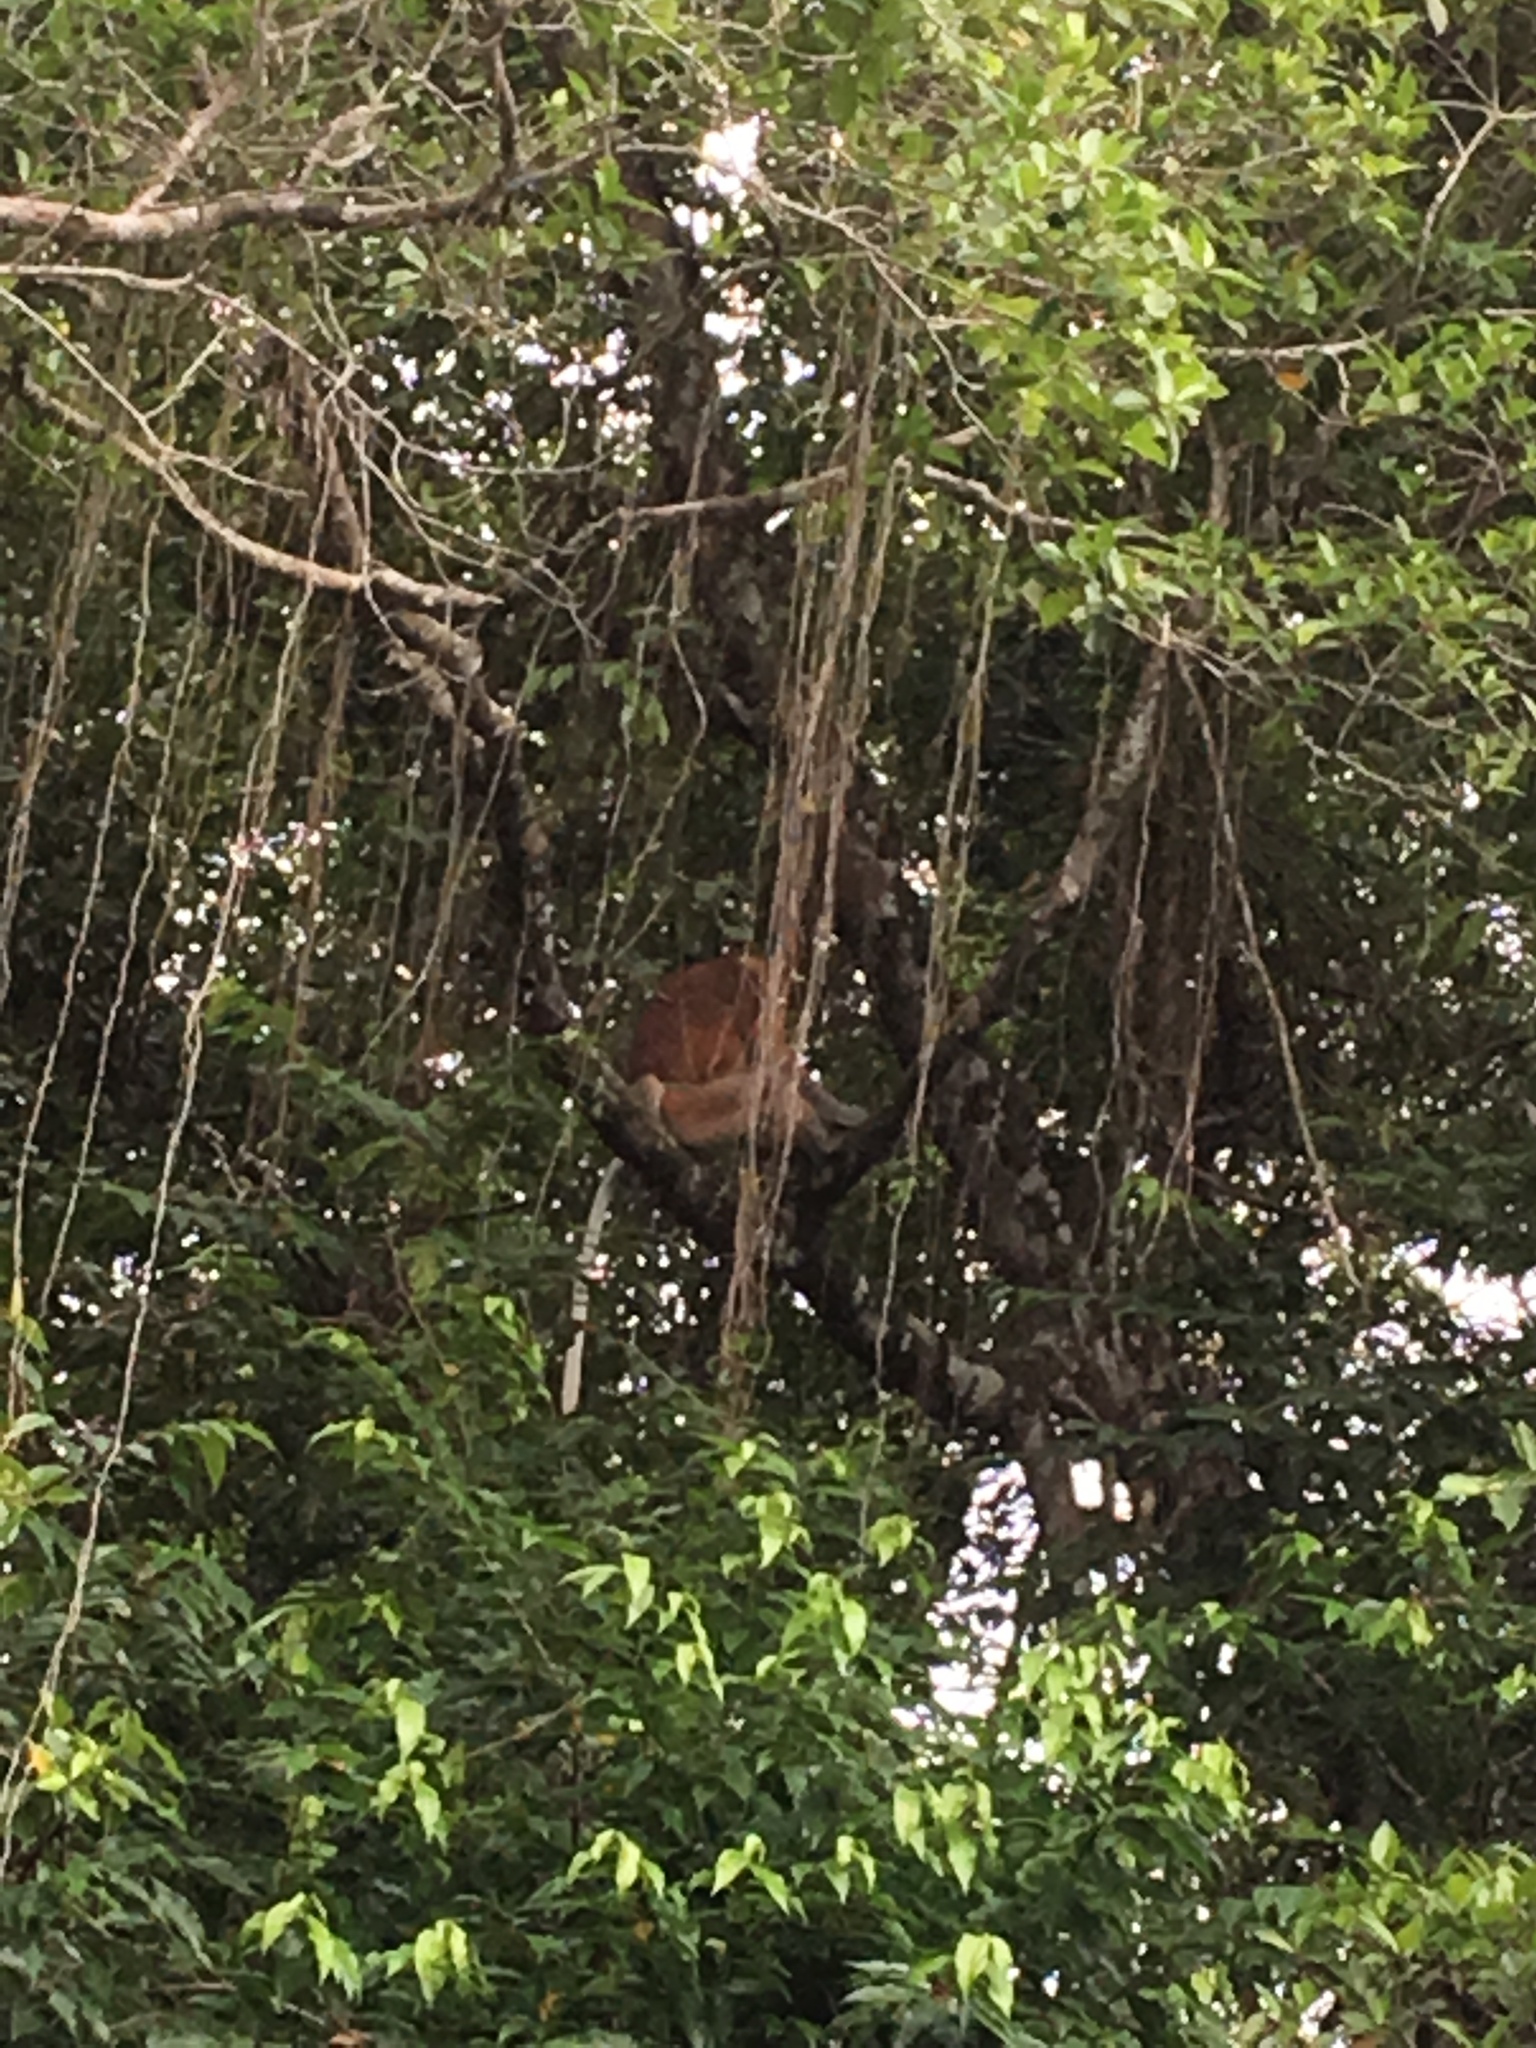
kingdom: Animalia
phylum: Chordata
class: Mammalia
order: Primates
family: Cercopithecidae
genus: Nasalis
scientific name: Nasalis larvatus
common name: Proboscis monkey
